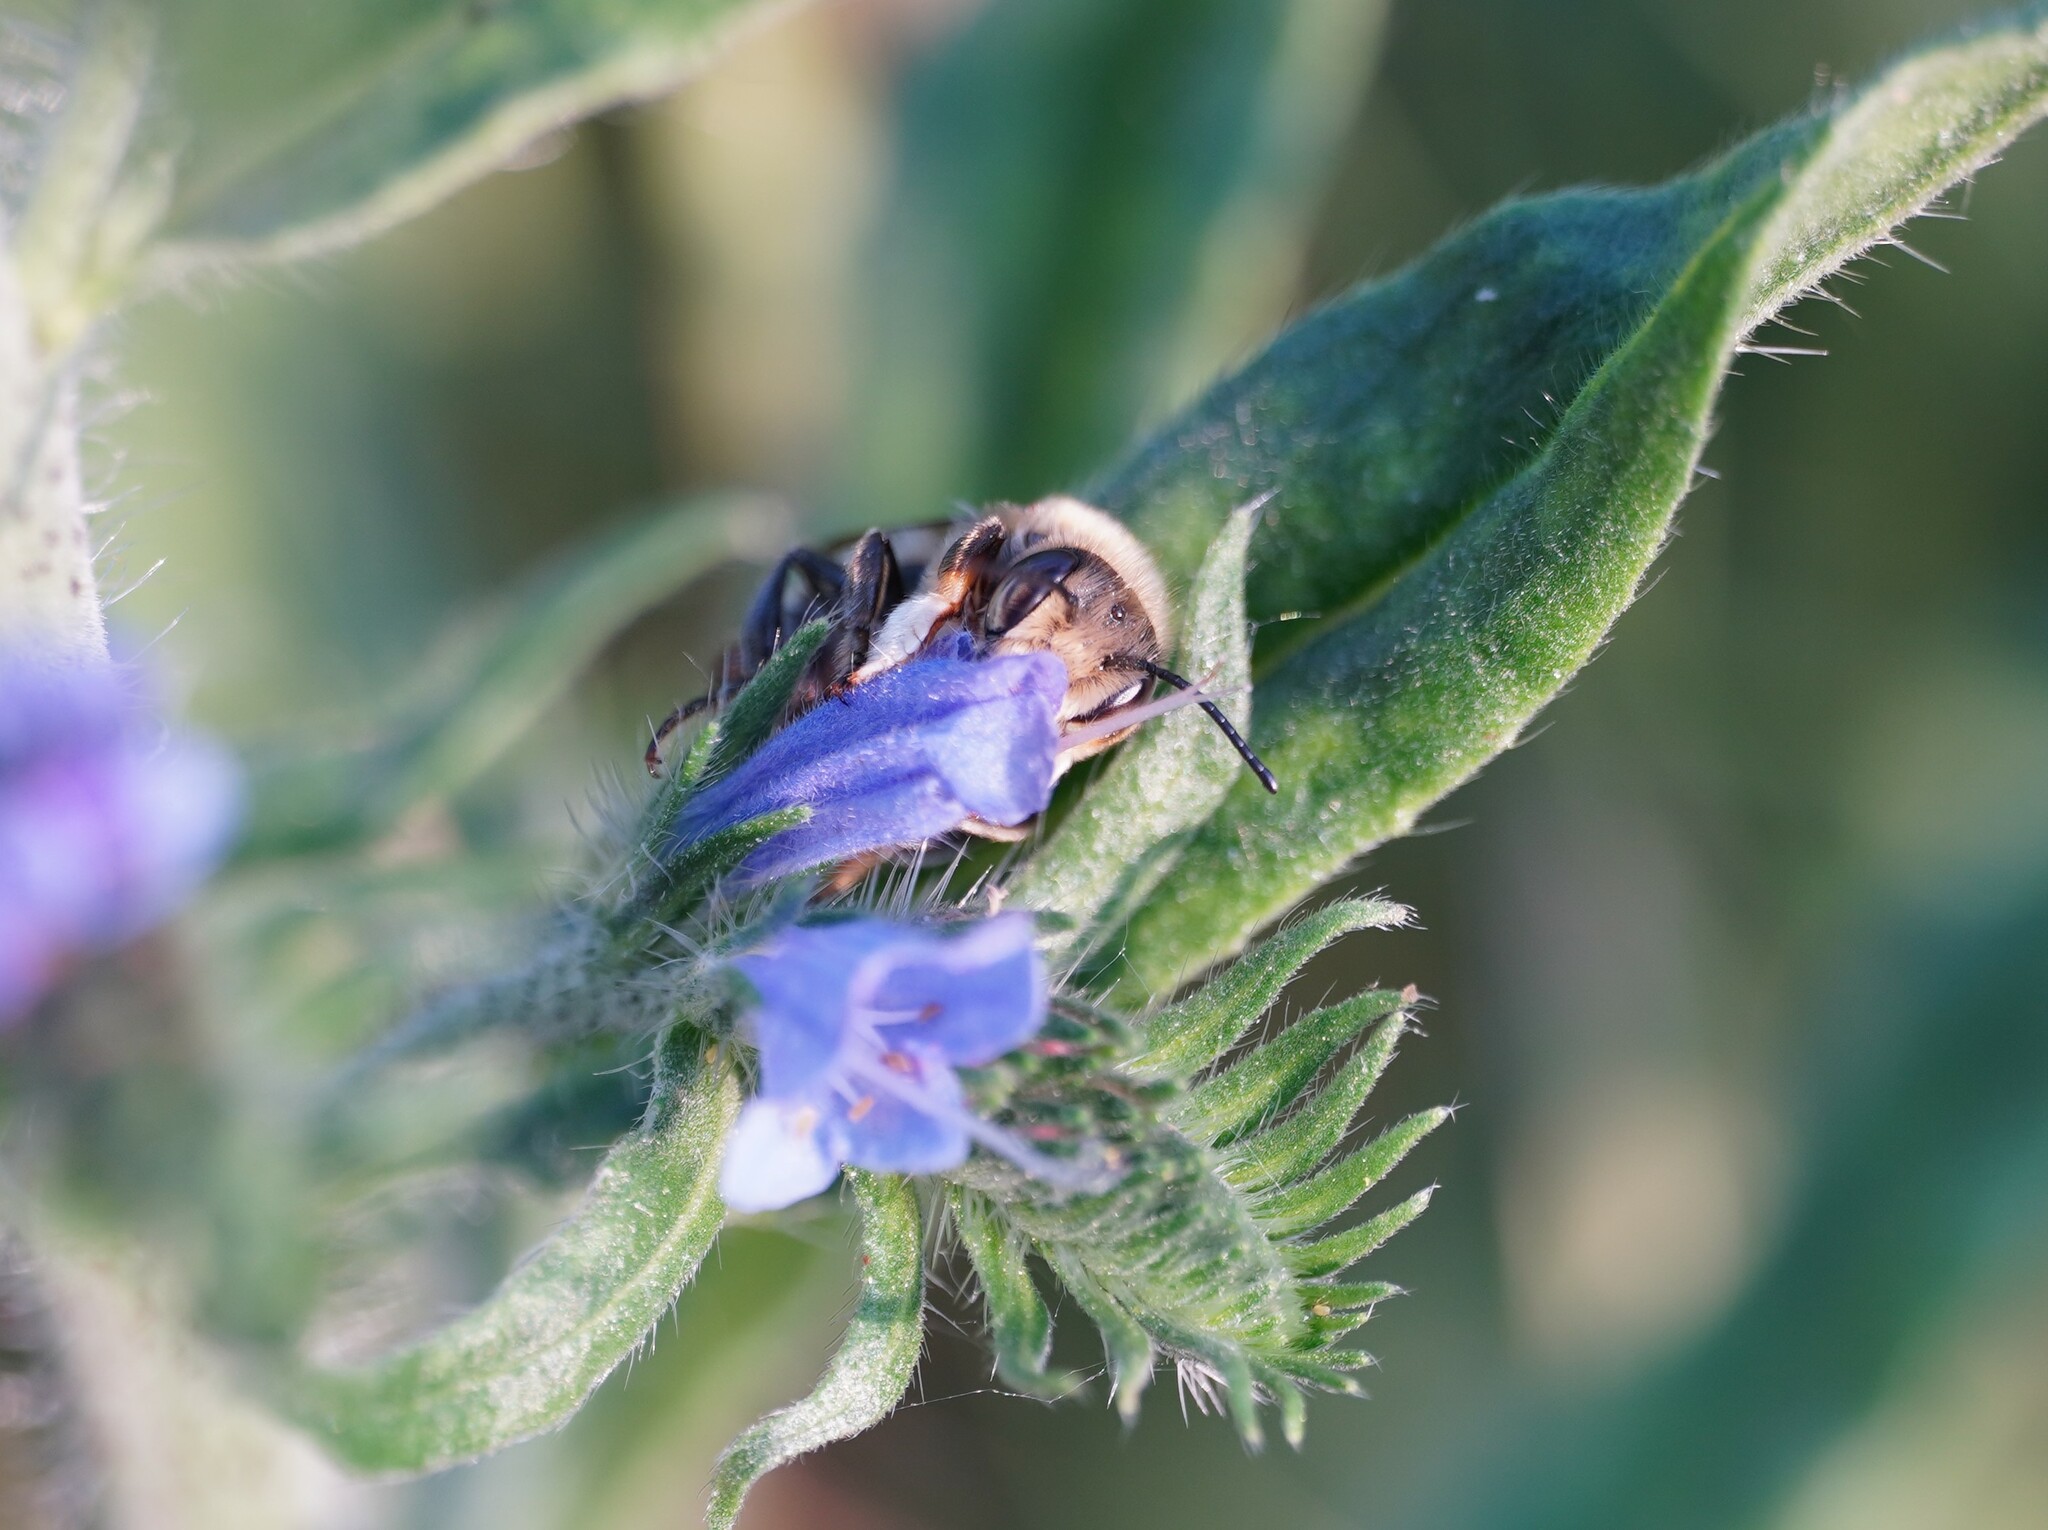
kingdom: Animalia
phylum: Arthropoda
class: Insecta
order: Hymenoptera
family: Megachilidae
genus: Megachile
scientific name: Megachile willughbiella
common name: Willughby's leafcutter bee
